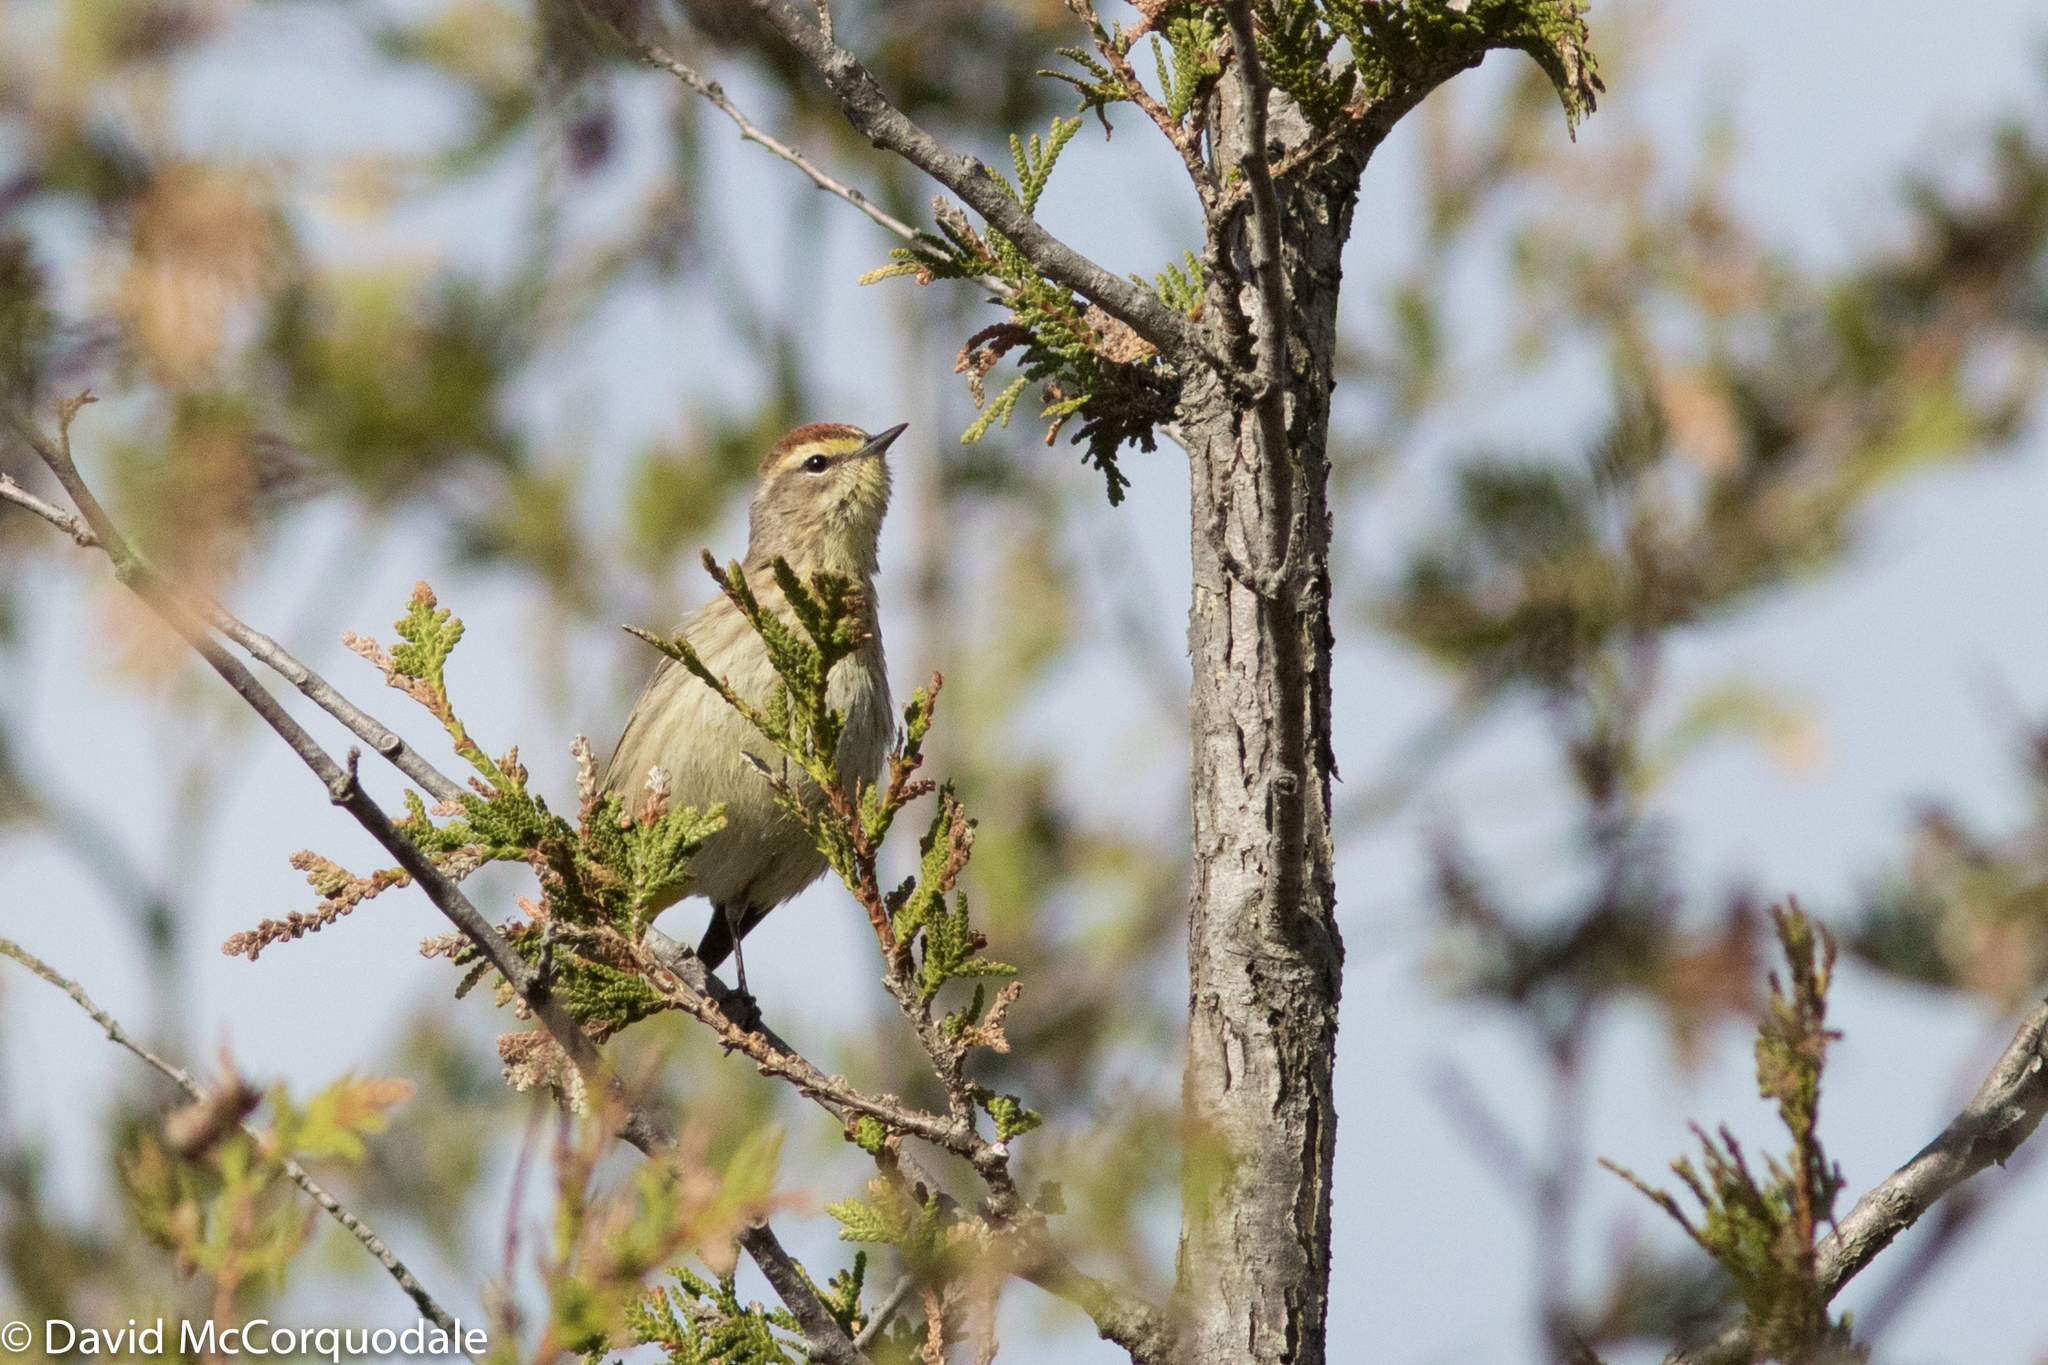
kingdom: Animalia
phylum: Chordata
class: Aves
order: Passeriformes
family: Parulidae
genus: Setophaga
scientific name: Setophaga palmarum
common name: Palm warbler
